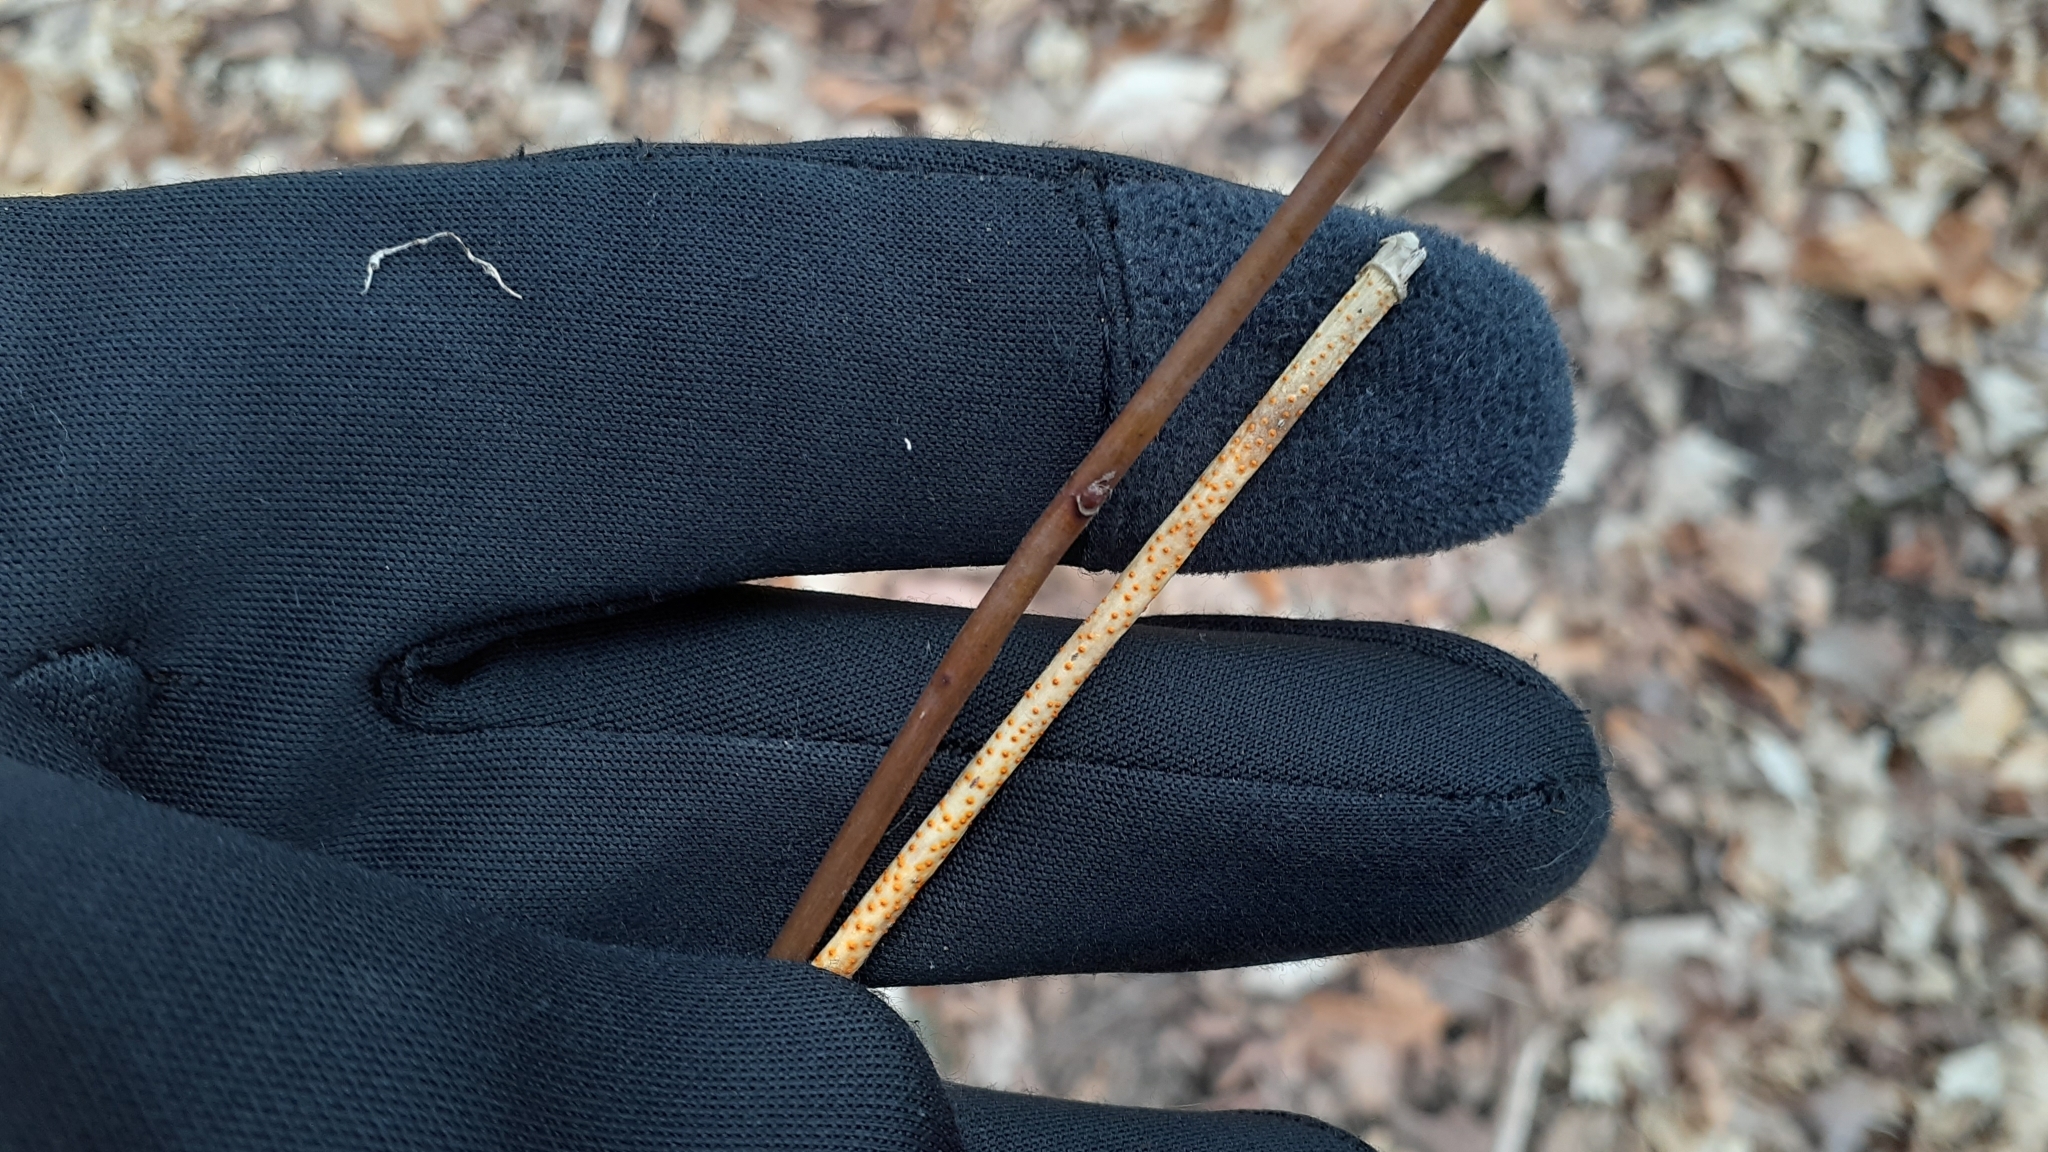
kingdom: Fungi
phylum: Ascomycota
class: Sordariomycetes
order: Diaporthales
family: Cryphonectriaceae
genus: Aurantioporthe
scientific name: Aurantioporthe corni
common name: Dogwood golden canker
